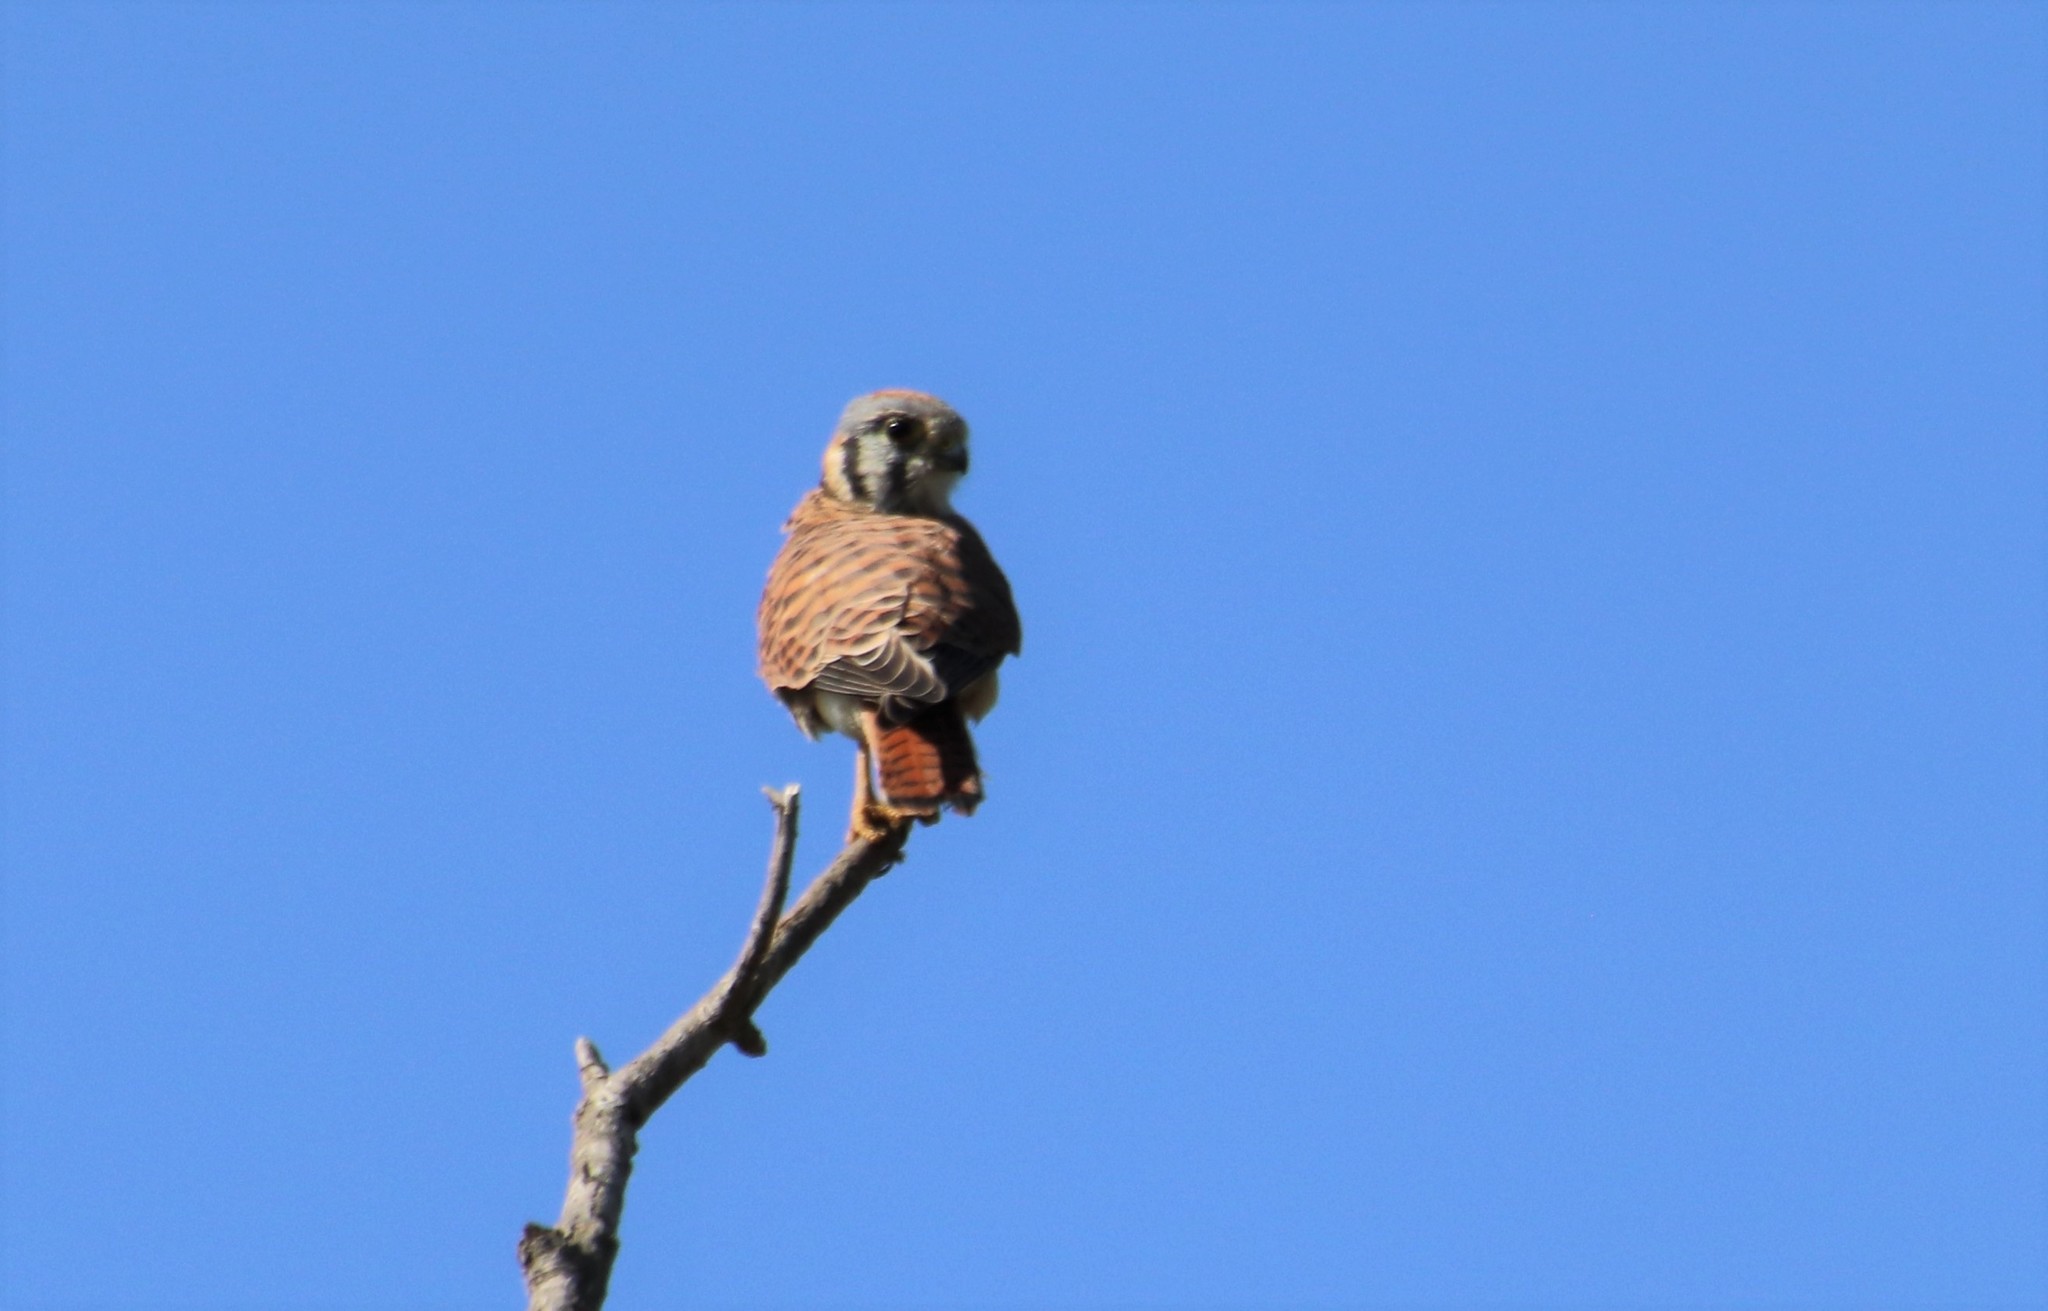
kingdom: Animalia
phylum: Chordata
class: Aves
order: Falconiformes
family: Falconidae
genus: Falco
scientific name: Falco sparverius
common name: American kestrel
